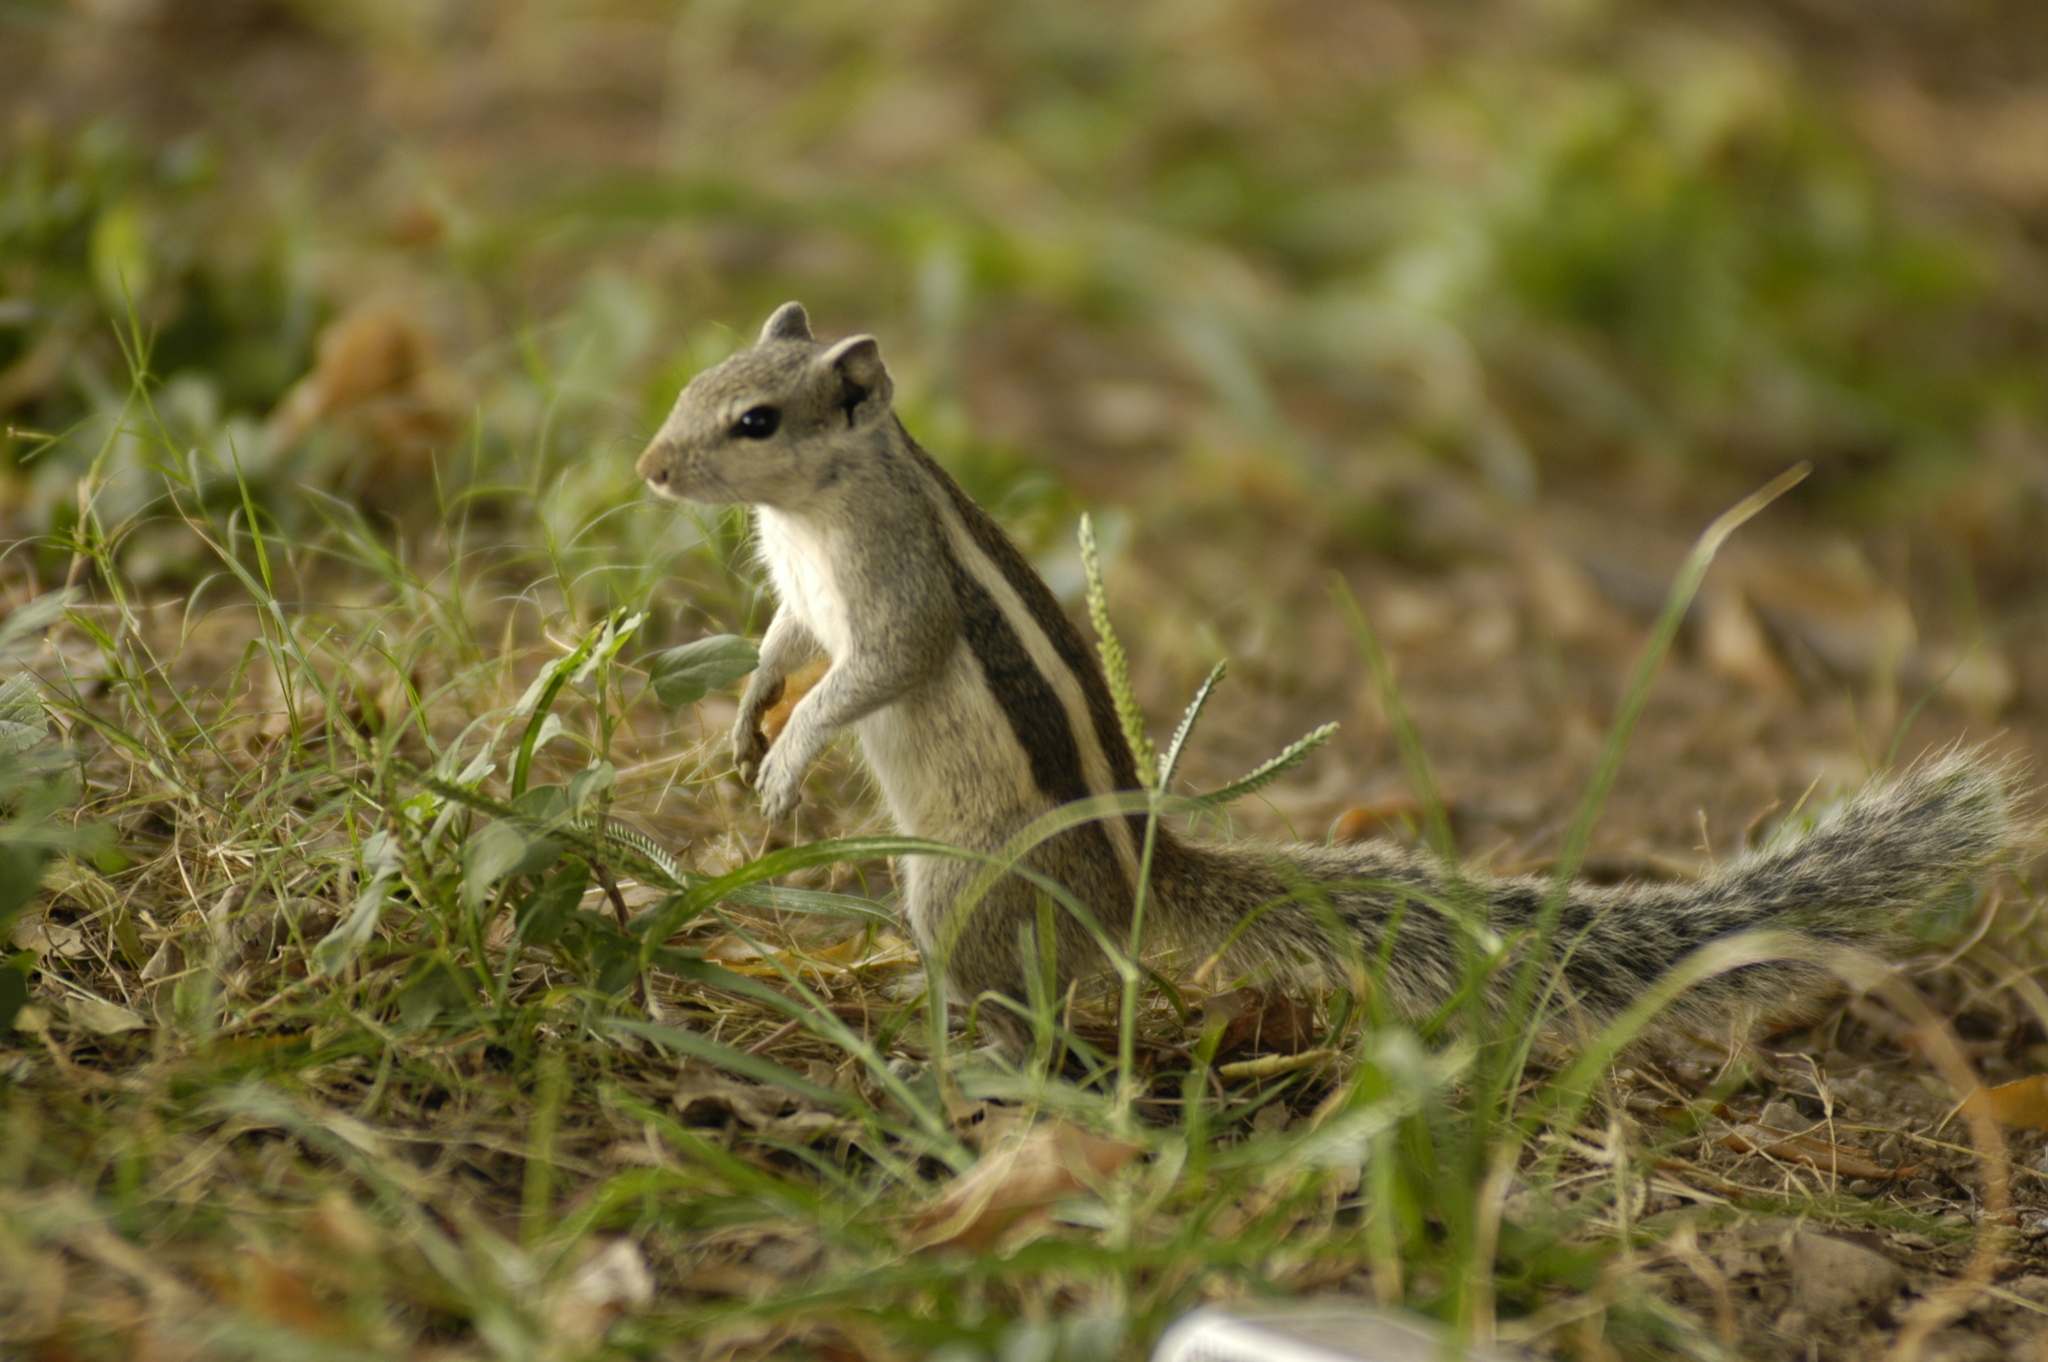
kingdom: Animalia
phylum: Chordata
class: Mammalia
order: Rodentia
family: Sciuridae
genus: Funambulus
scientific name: Funambulus pennantii
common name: Northern palm squirrel
